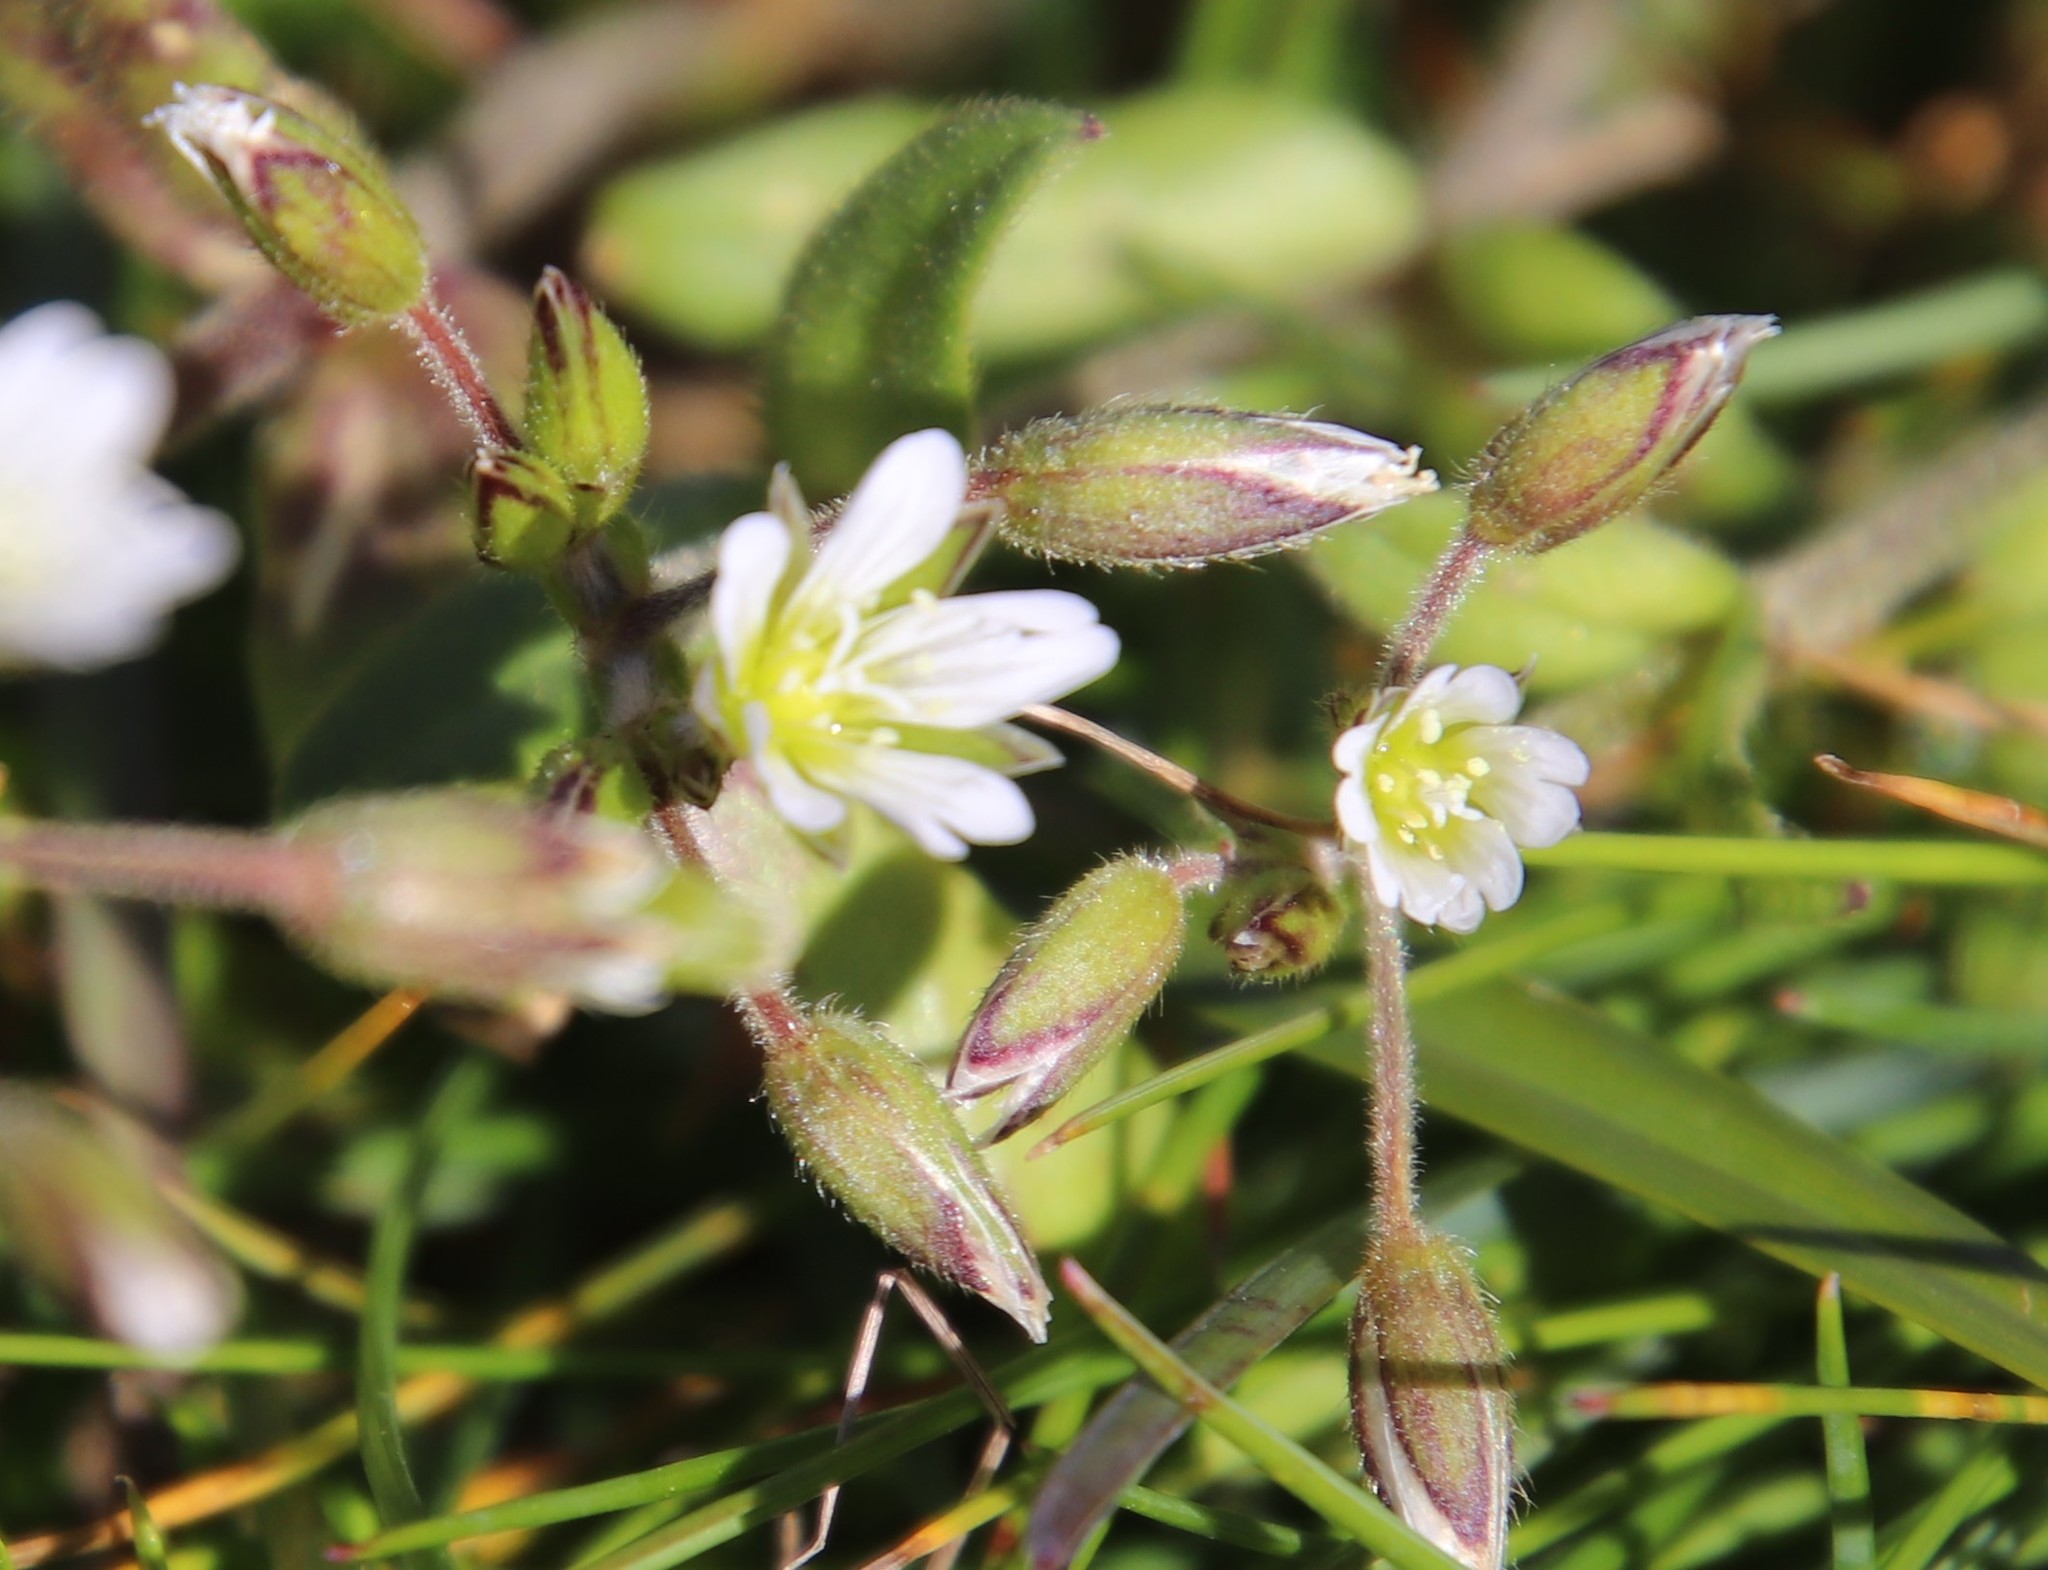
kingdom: Plantae
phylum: Tracheophyta
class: Magnoliopsida
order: Caryophyllales
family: Caryophyllaceae
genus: Cerastium
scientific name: Cerastium fontanum
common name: Common mouse-ear
